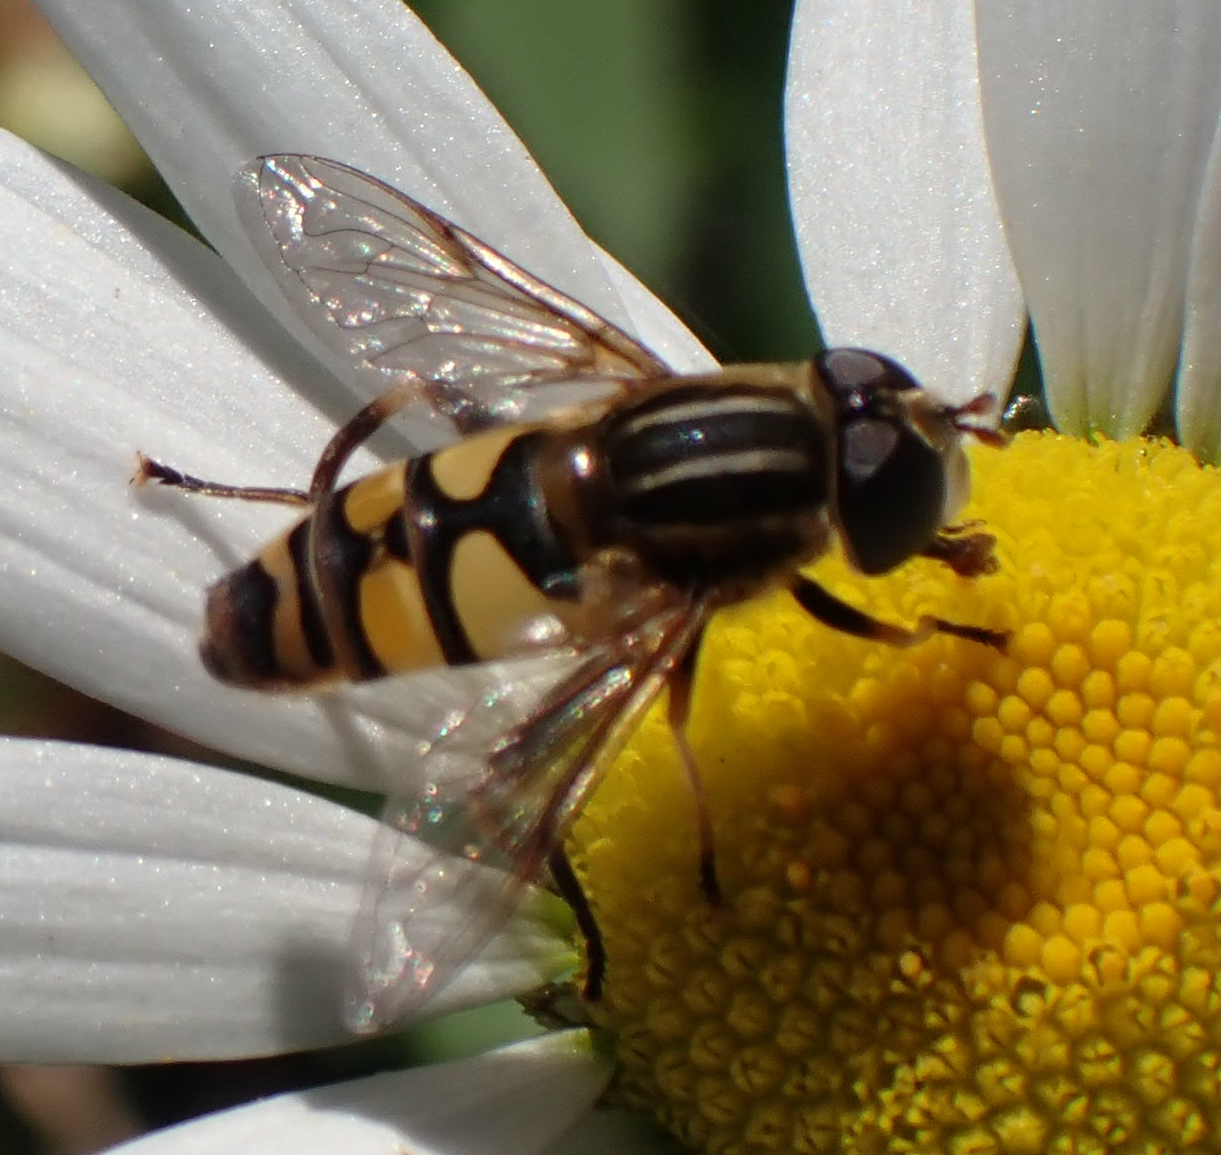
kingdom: Animalia
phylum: Arthropoda
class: Insecta
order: Diptera
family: Syrphidae
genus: Helophilus
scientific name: Helophilus fasciatus
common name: Narrow-headed marsh fly
